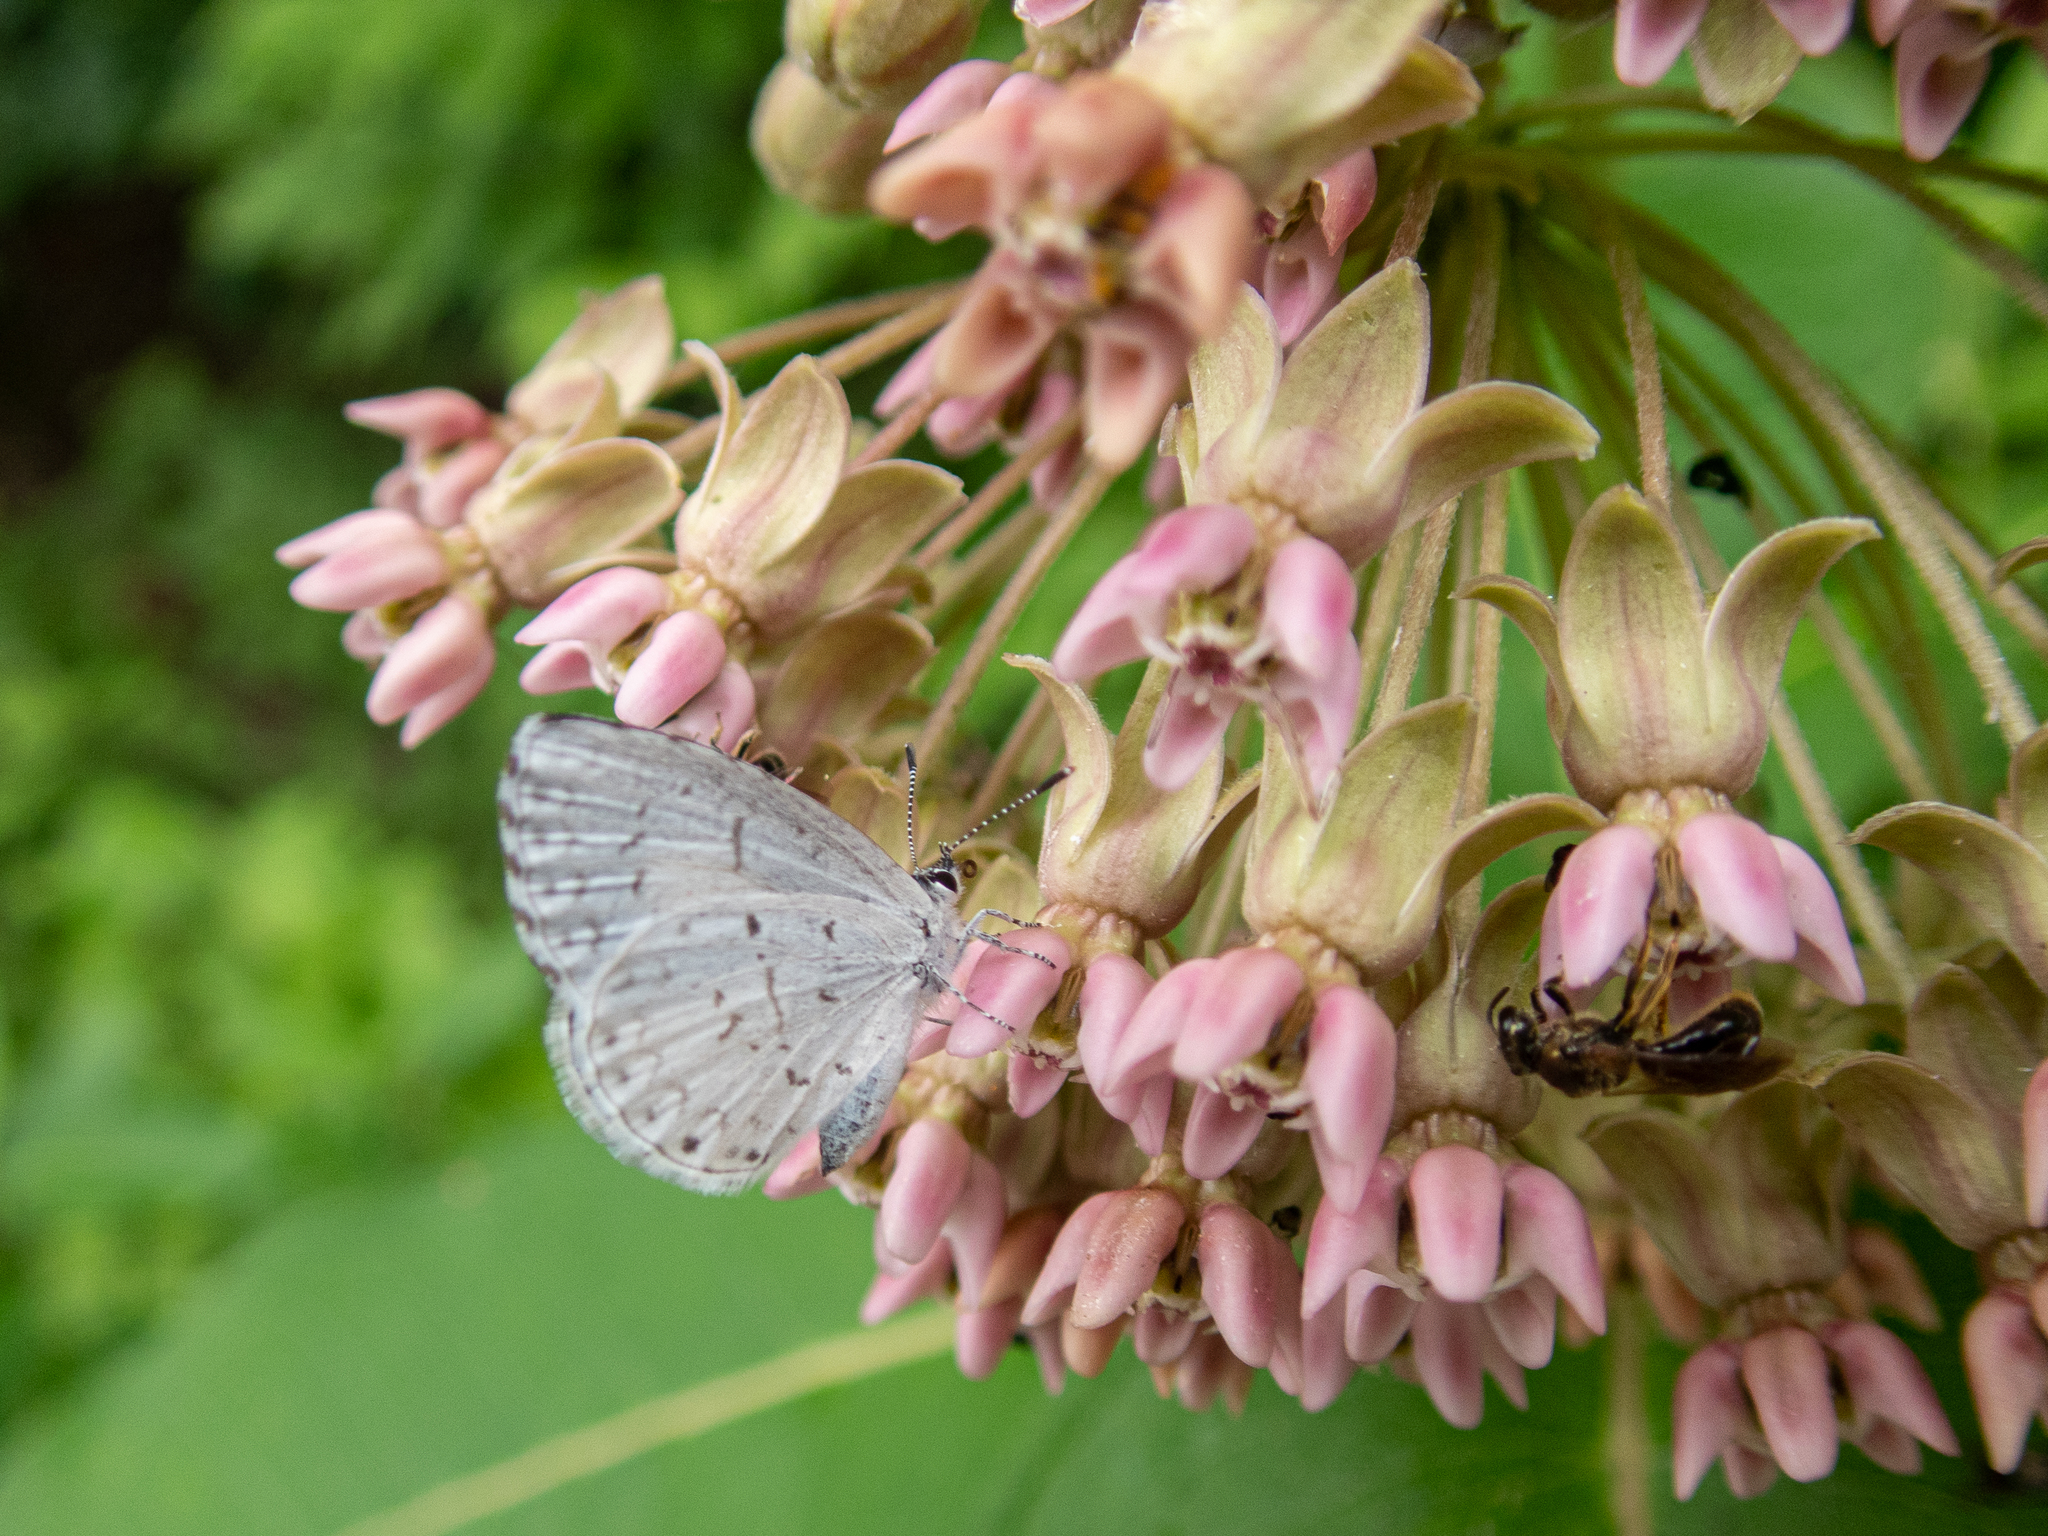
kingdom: Animalia
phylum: Arthropoda
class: Insecta
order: Lepidoptera
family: Lycaenidae
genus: Cyaniris
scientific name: Cyaniris neglecta
